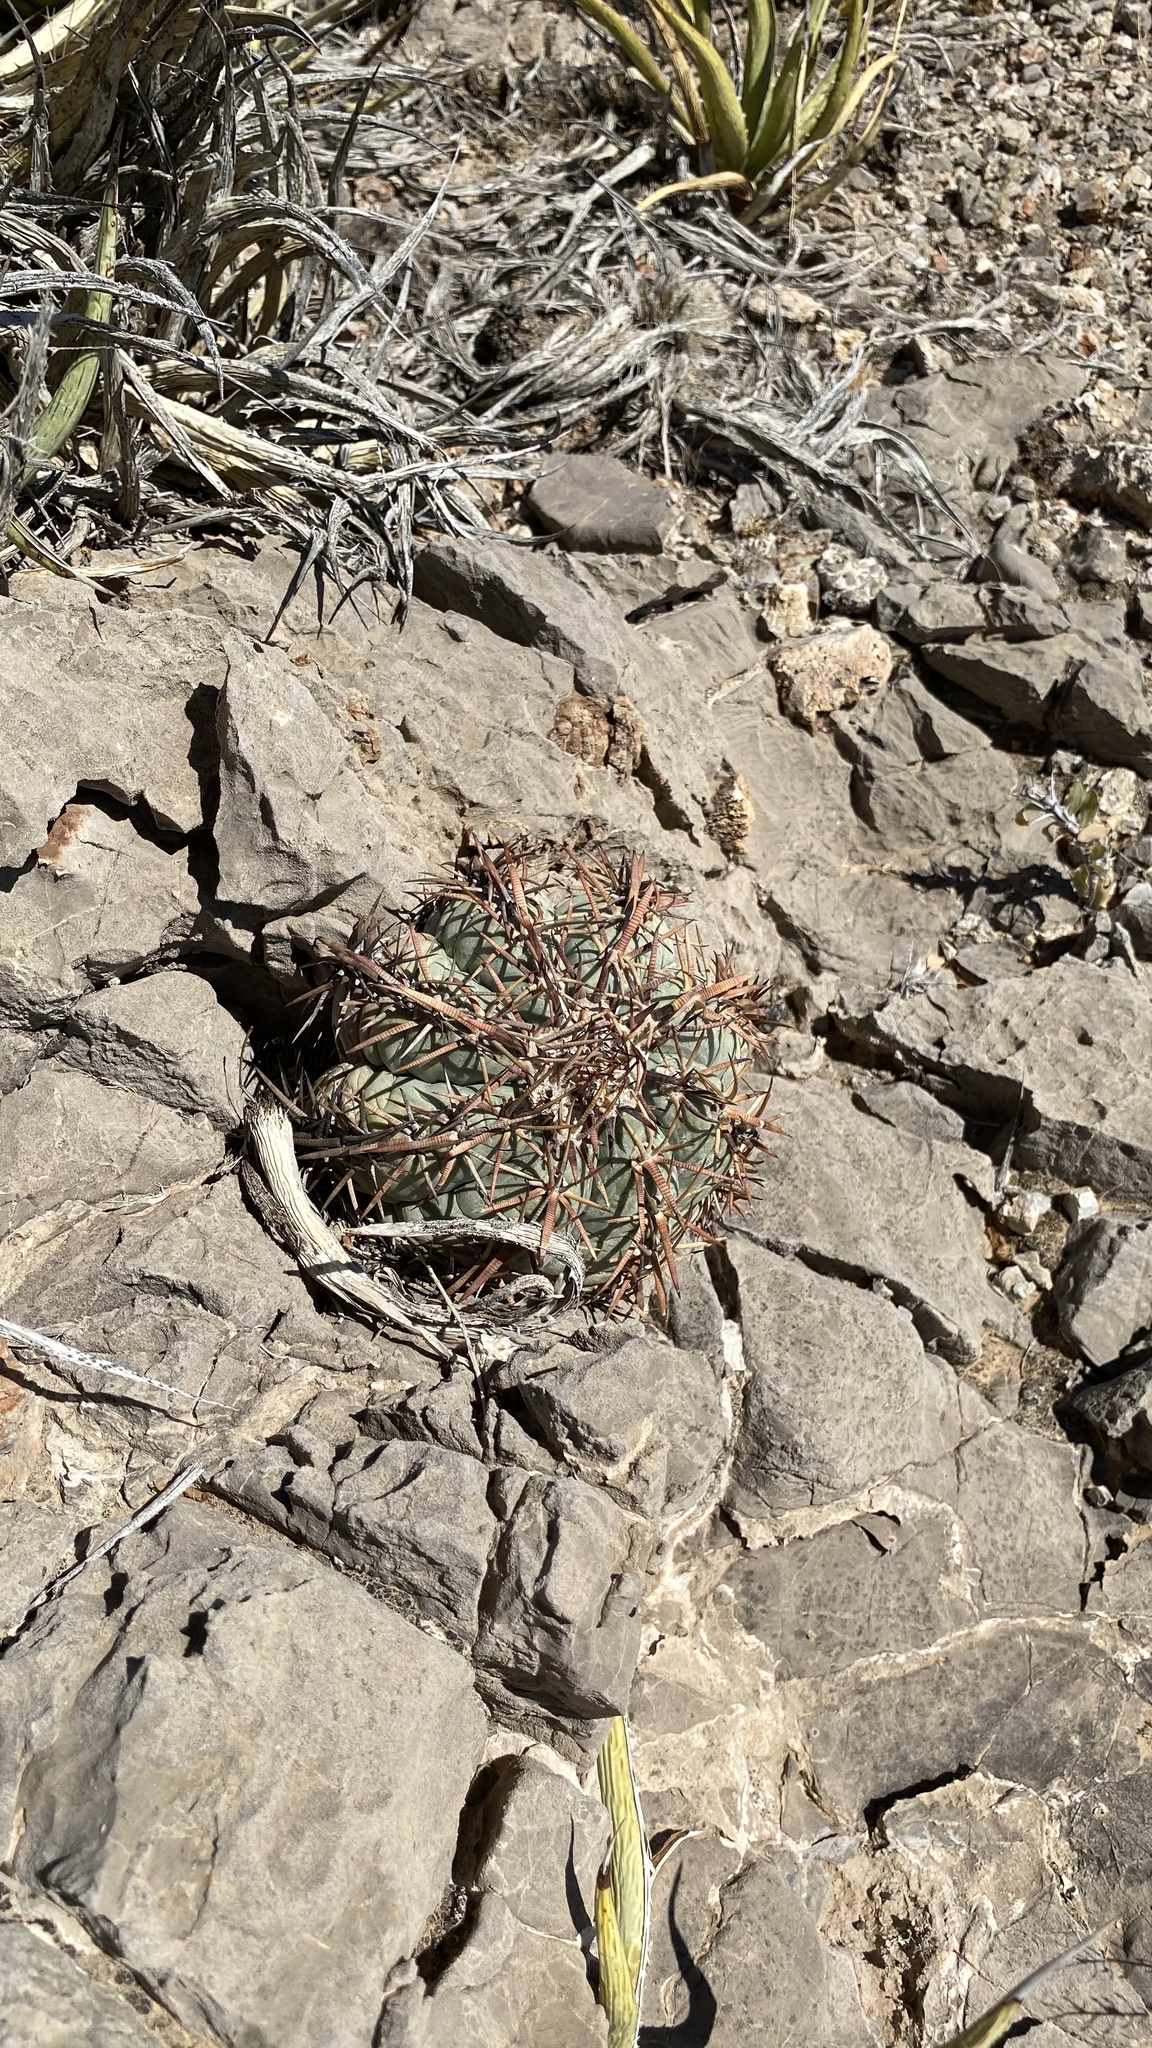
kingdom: Plantae
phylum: Tracheophyta
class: Magnoliopsida
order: Caryophyllales
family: Cactaceae
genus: Echinocactus
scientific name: Echinocactus horizonthalonius
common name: Devilshead
